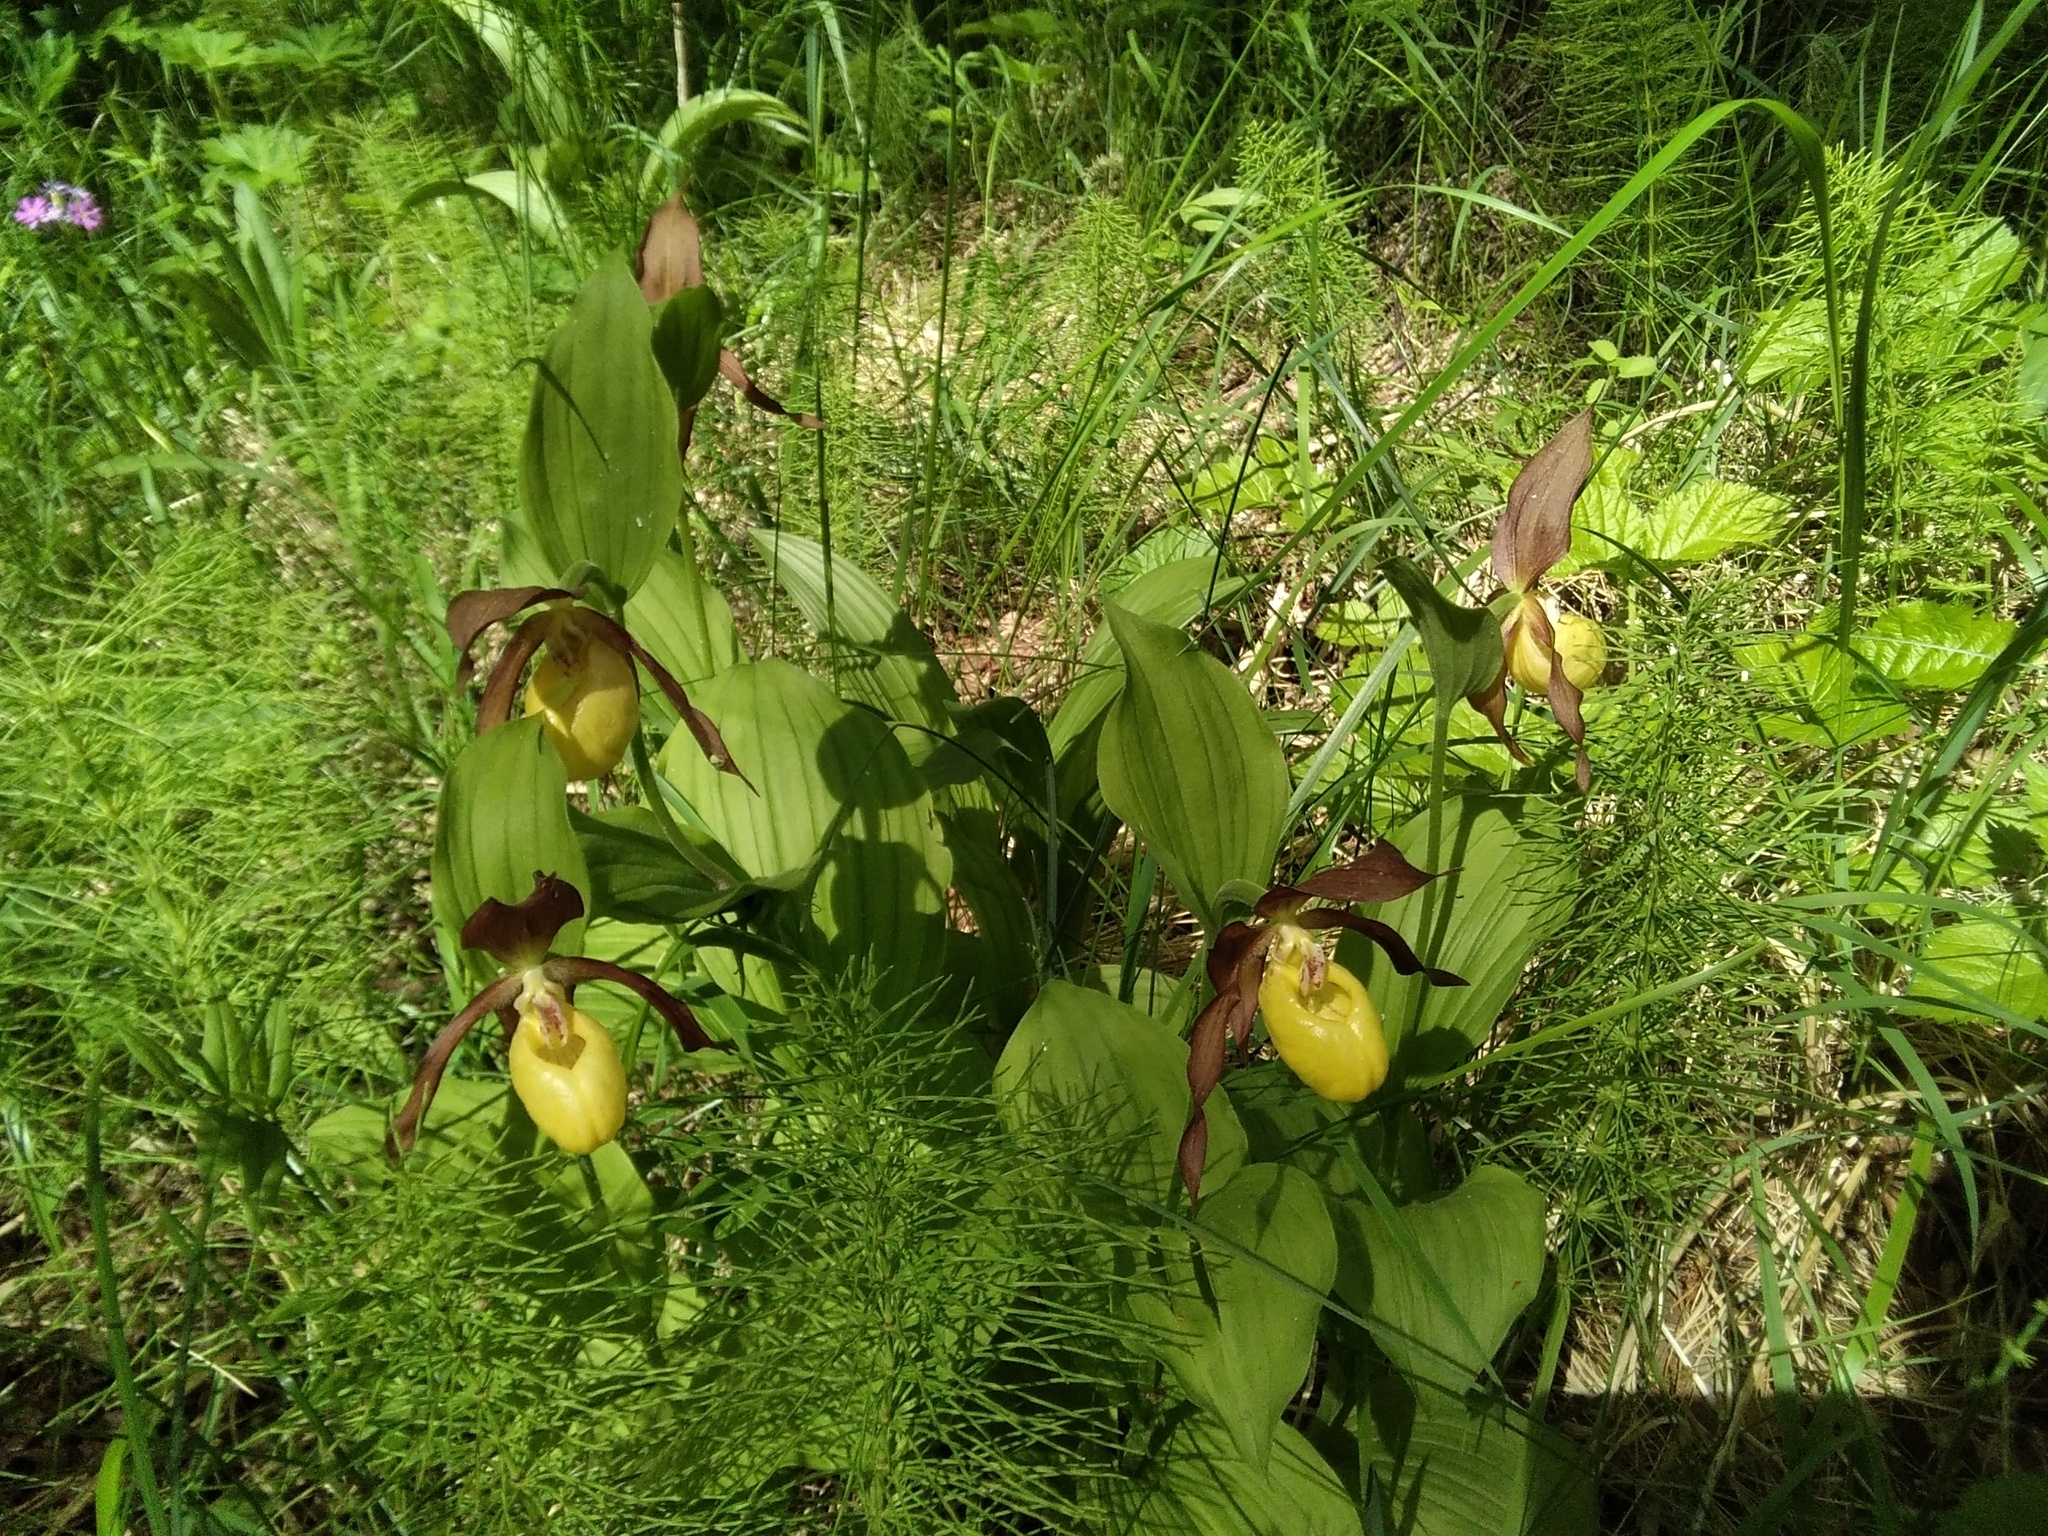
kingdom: Plantae
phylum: Tracheophyta
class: Liliopsida
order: Asparagales
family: Orchidaceae
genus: Cypripedium
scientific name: Cypripedium calceolus
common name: Lady's-slipper
